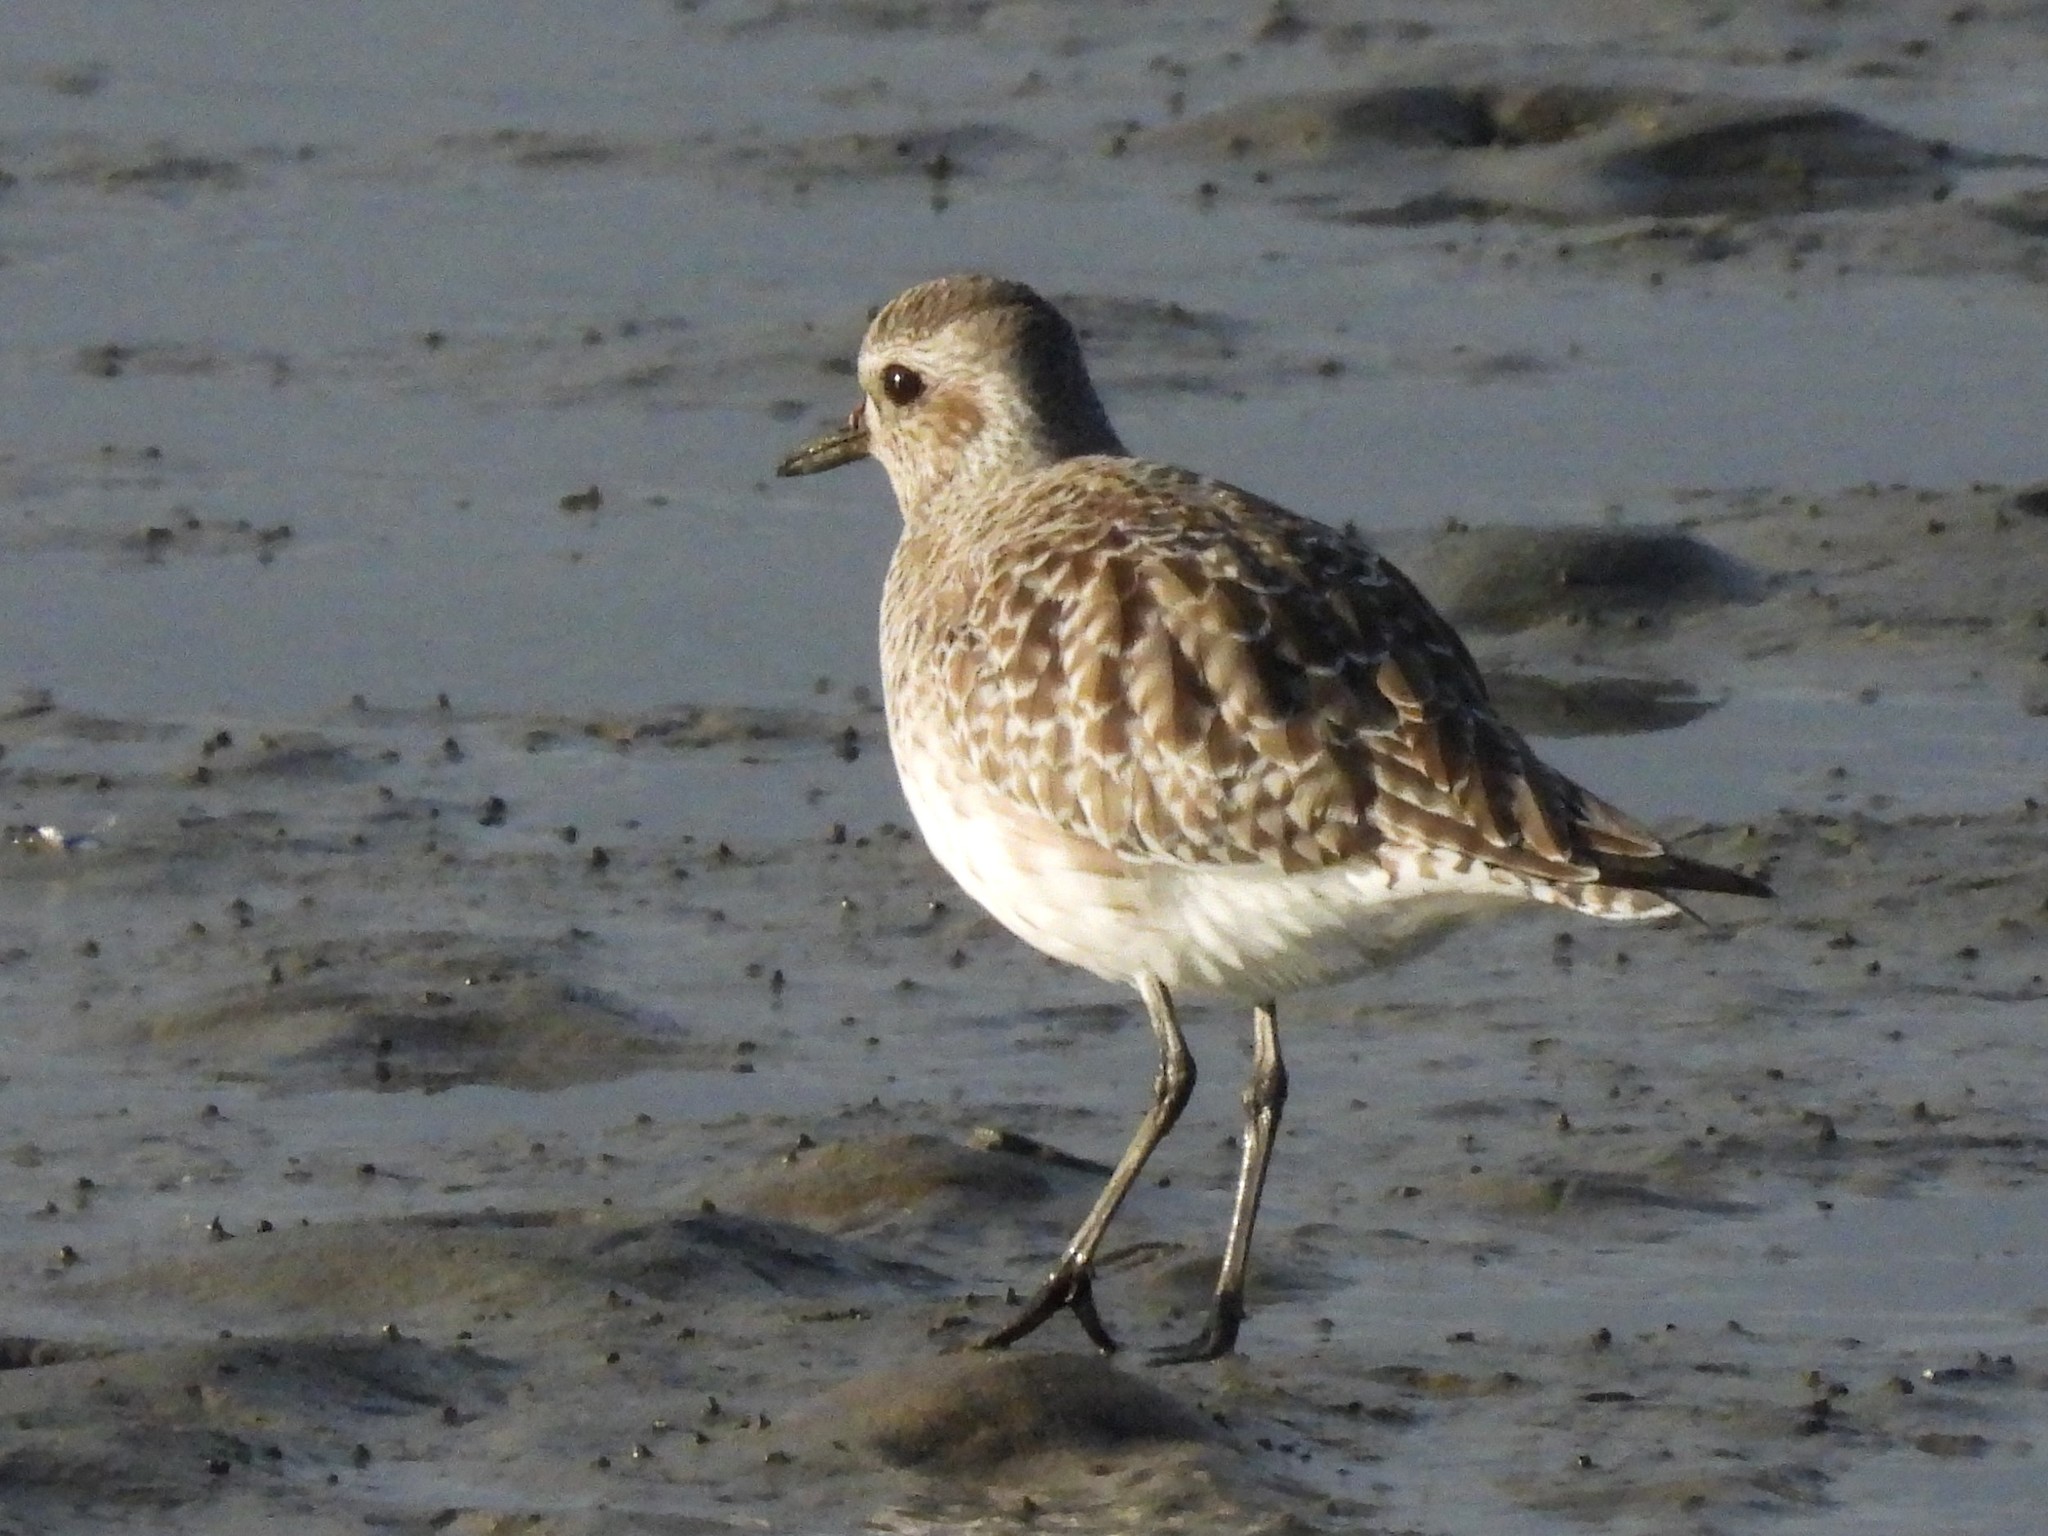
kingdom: Animalia
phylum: Chordata
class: Aves
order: Charadriiformes
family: Charadriidae
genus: Pluvialis
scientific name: Pluvialis squatarola
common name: Grey plover
